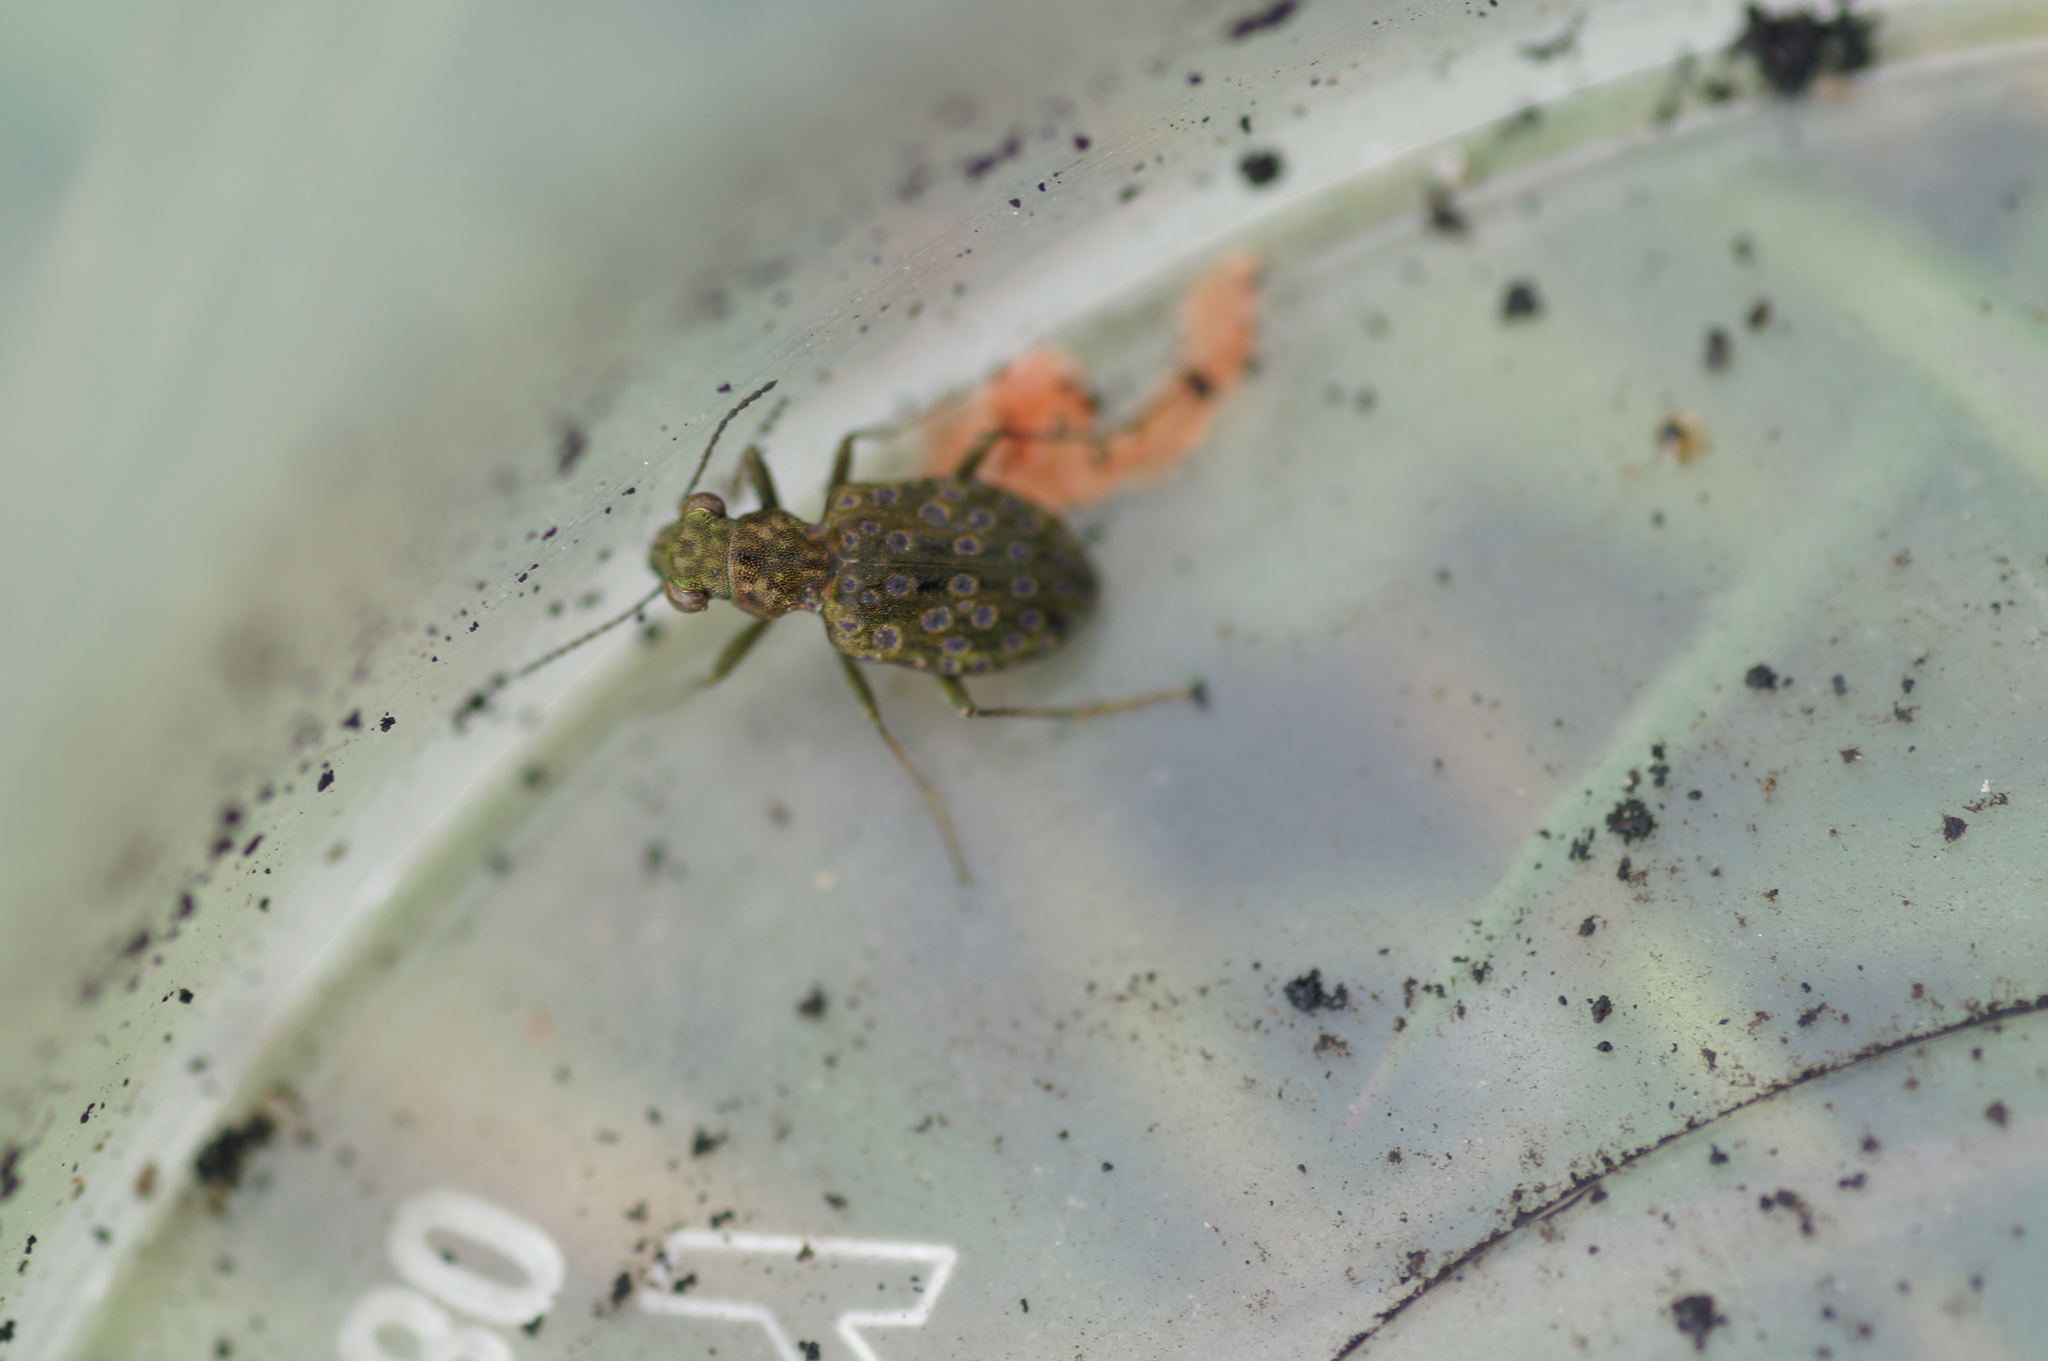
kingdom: Animalia
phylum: Arthropoda
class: Insecta
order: Coleoptera
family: Carabidae
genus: Elaphrus
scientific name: Elaphrus riparius
